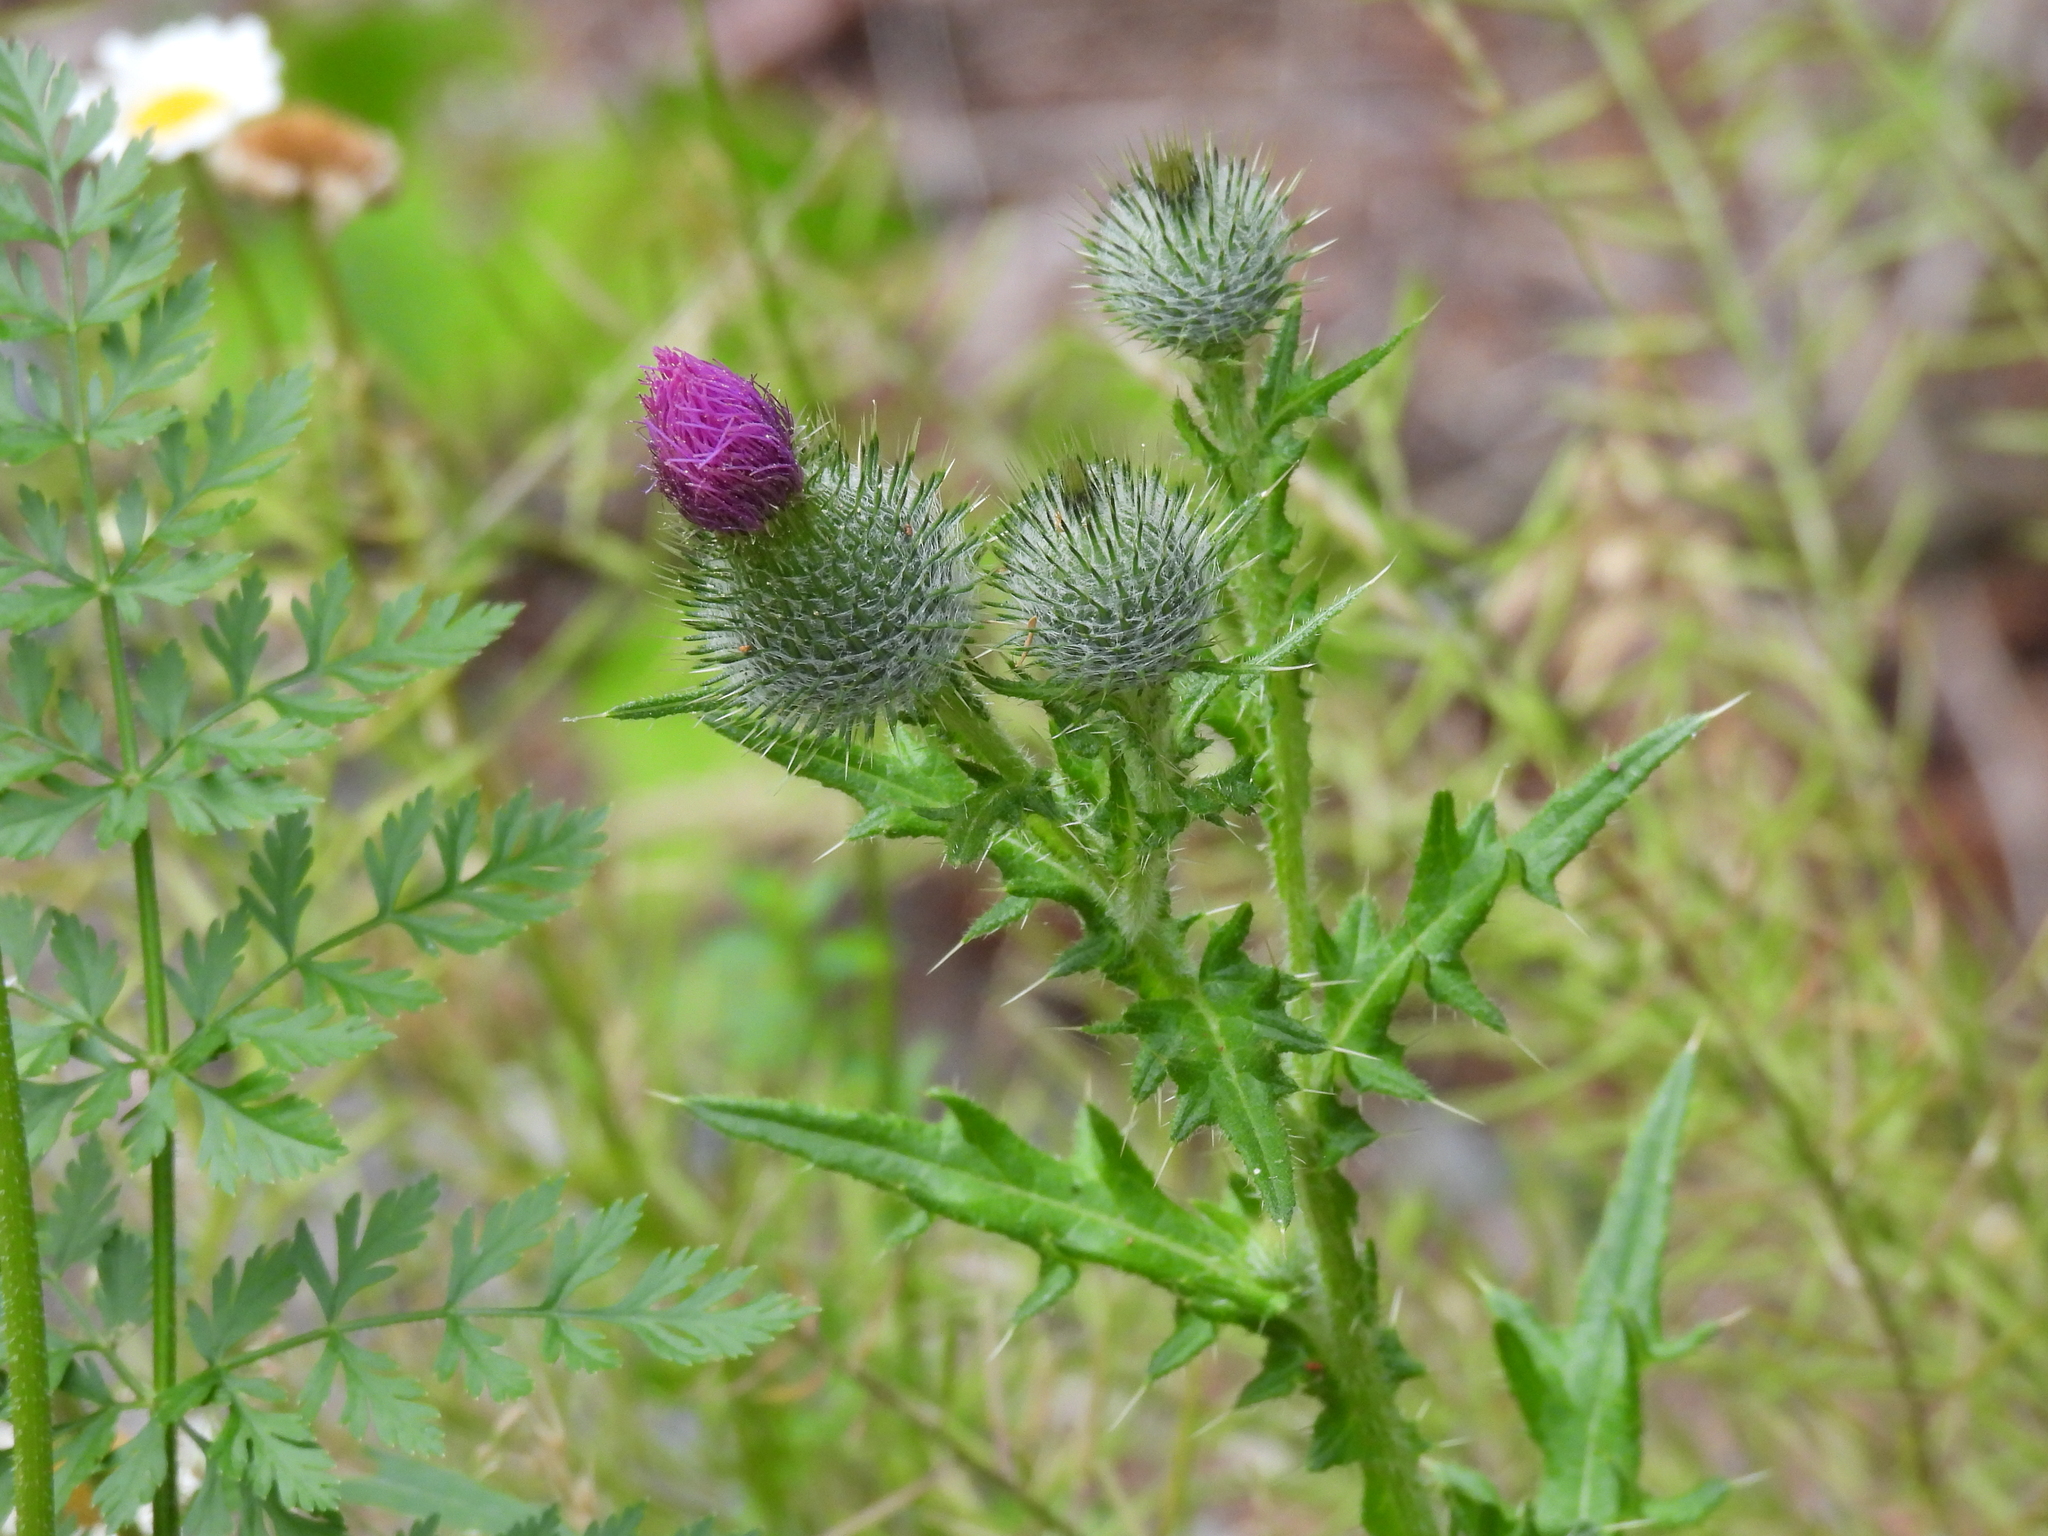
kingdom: Plantae
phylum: Tracheophyta
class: Magnoliopsida
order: Asterales
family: Asteraceae
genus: Cirsium
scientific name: Cirsium vulgare
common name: Bull thistle
